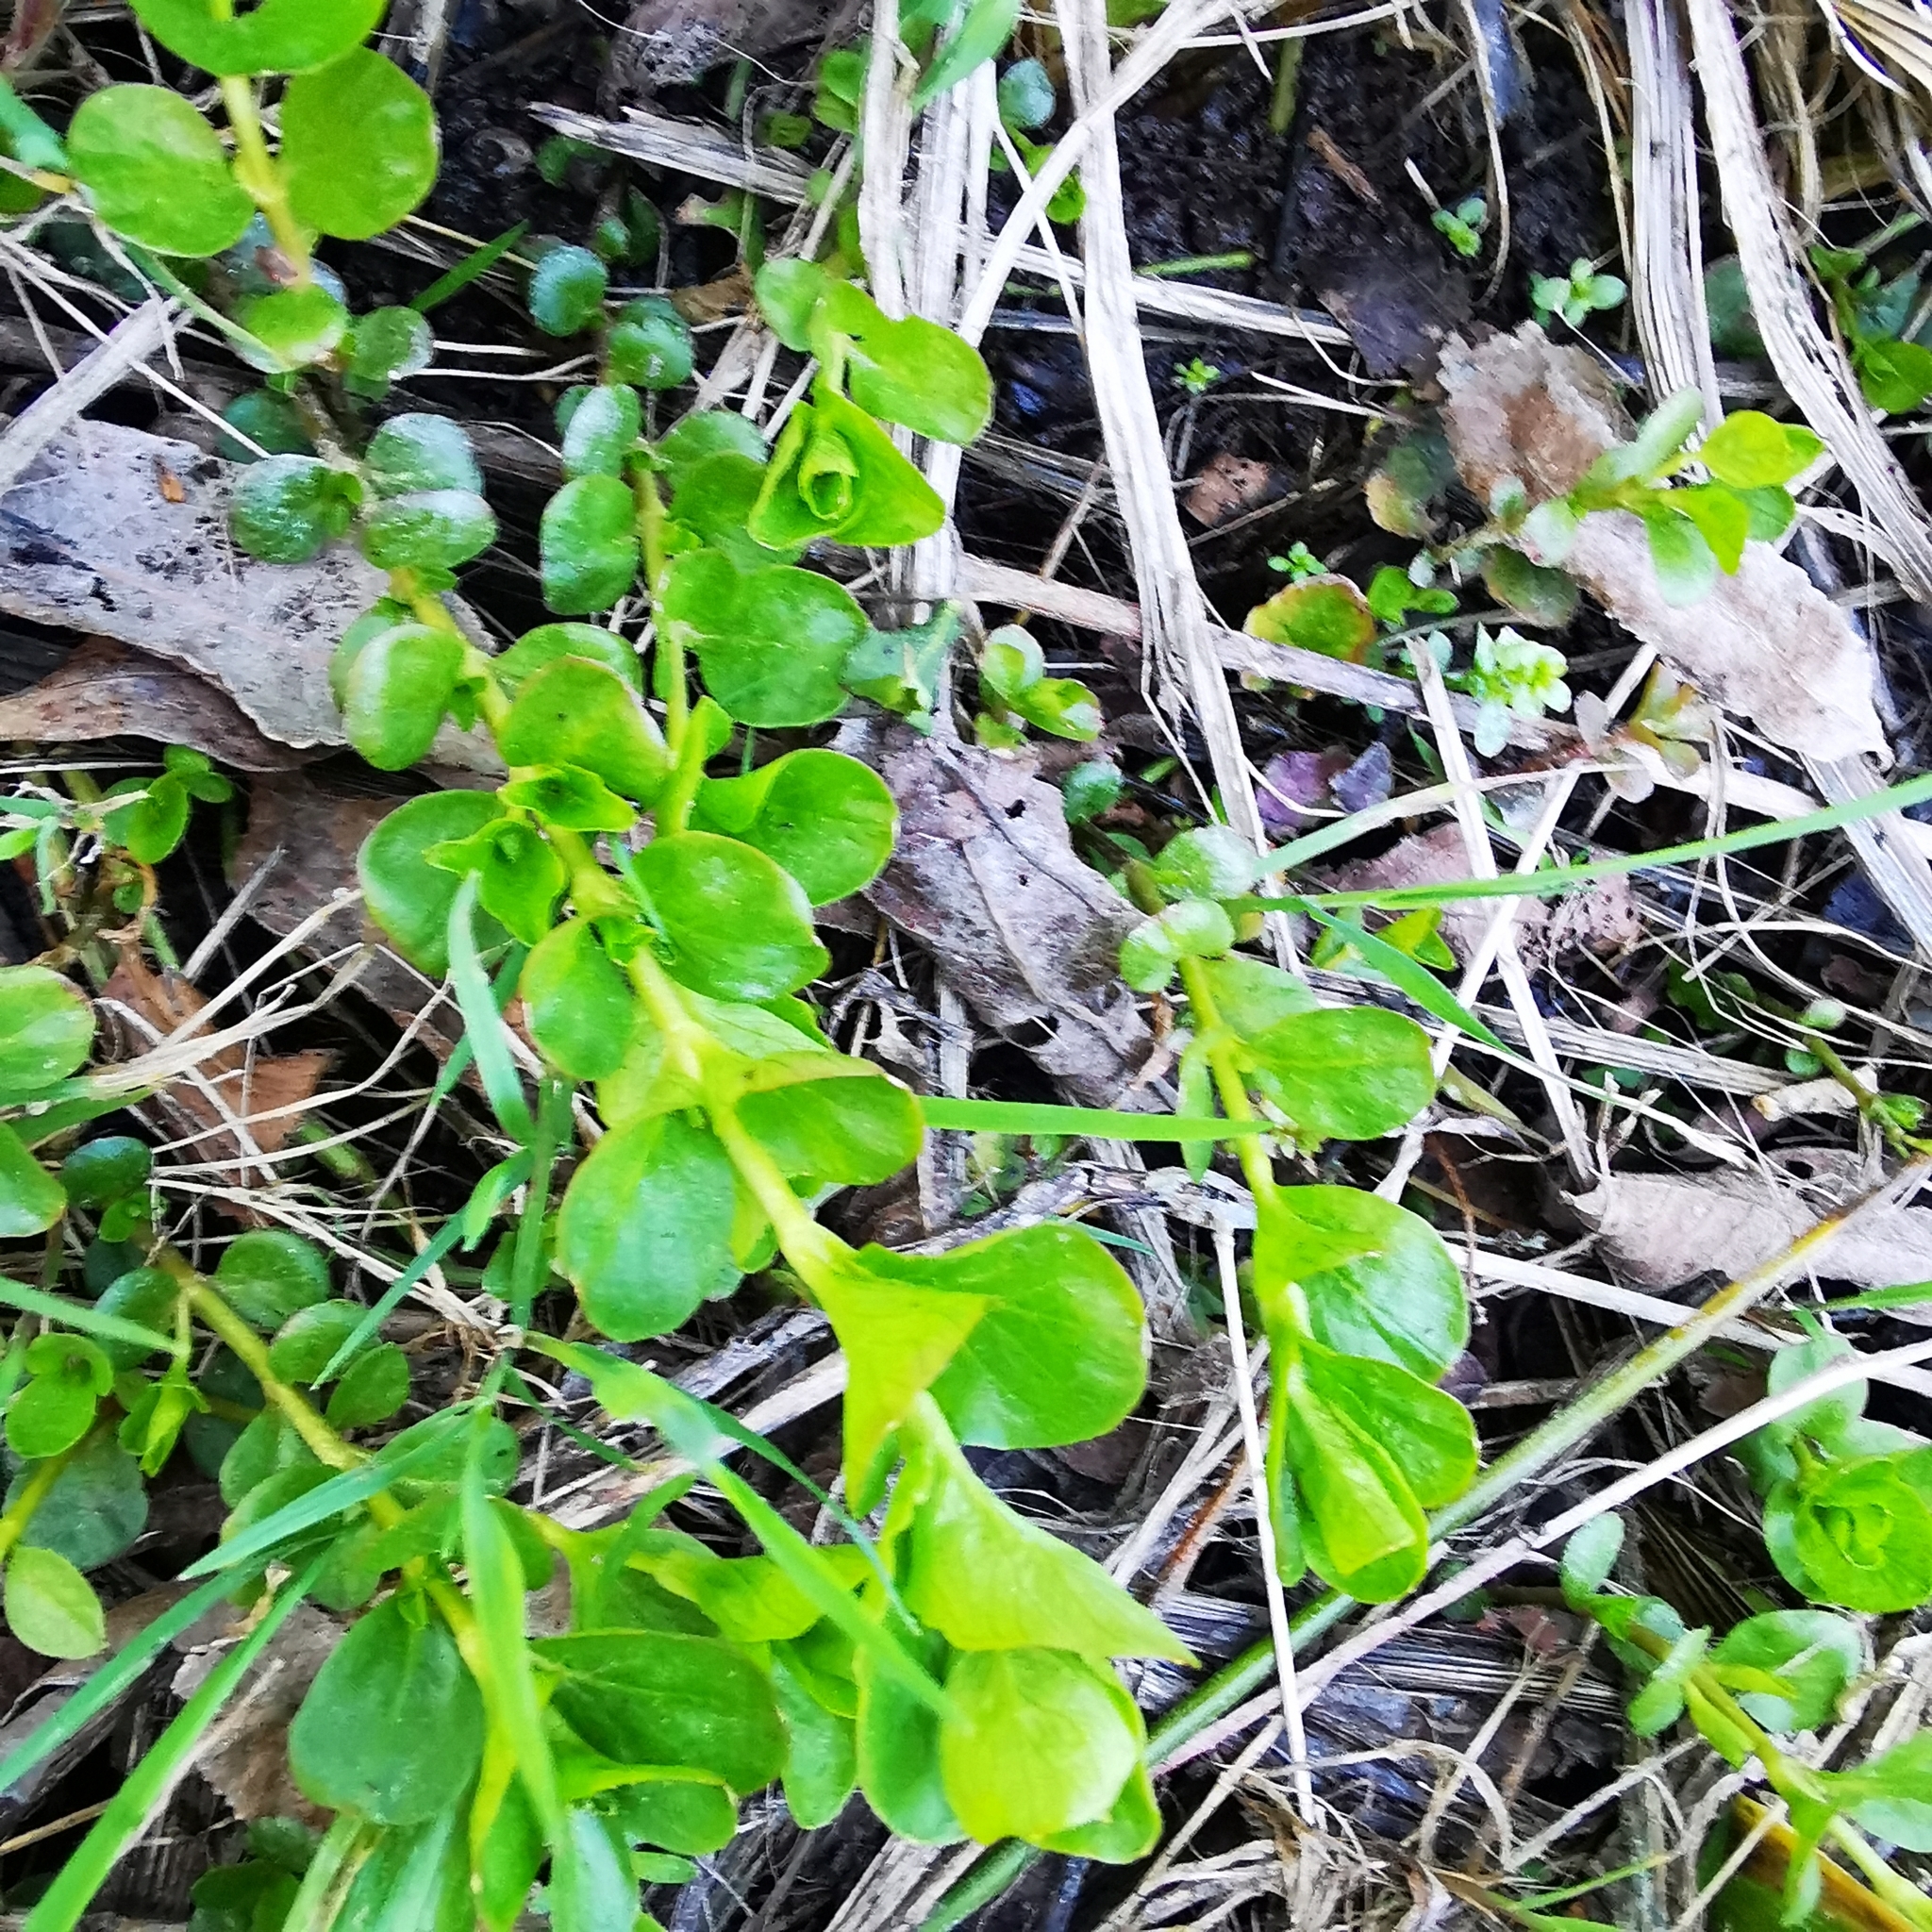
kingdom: Plantae
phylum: Tracheophyta
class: Magnoliopsida
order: Ericales
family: Primulaceae
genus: Lysimachia
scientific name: Lysimachia nummularia
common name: Moneywort
